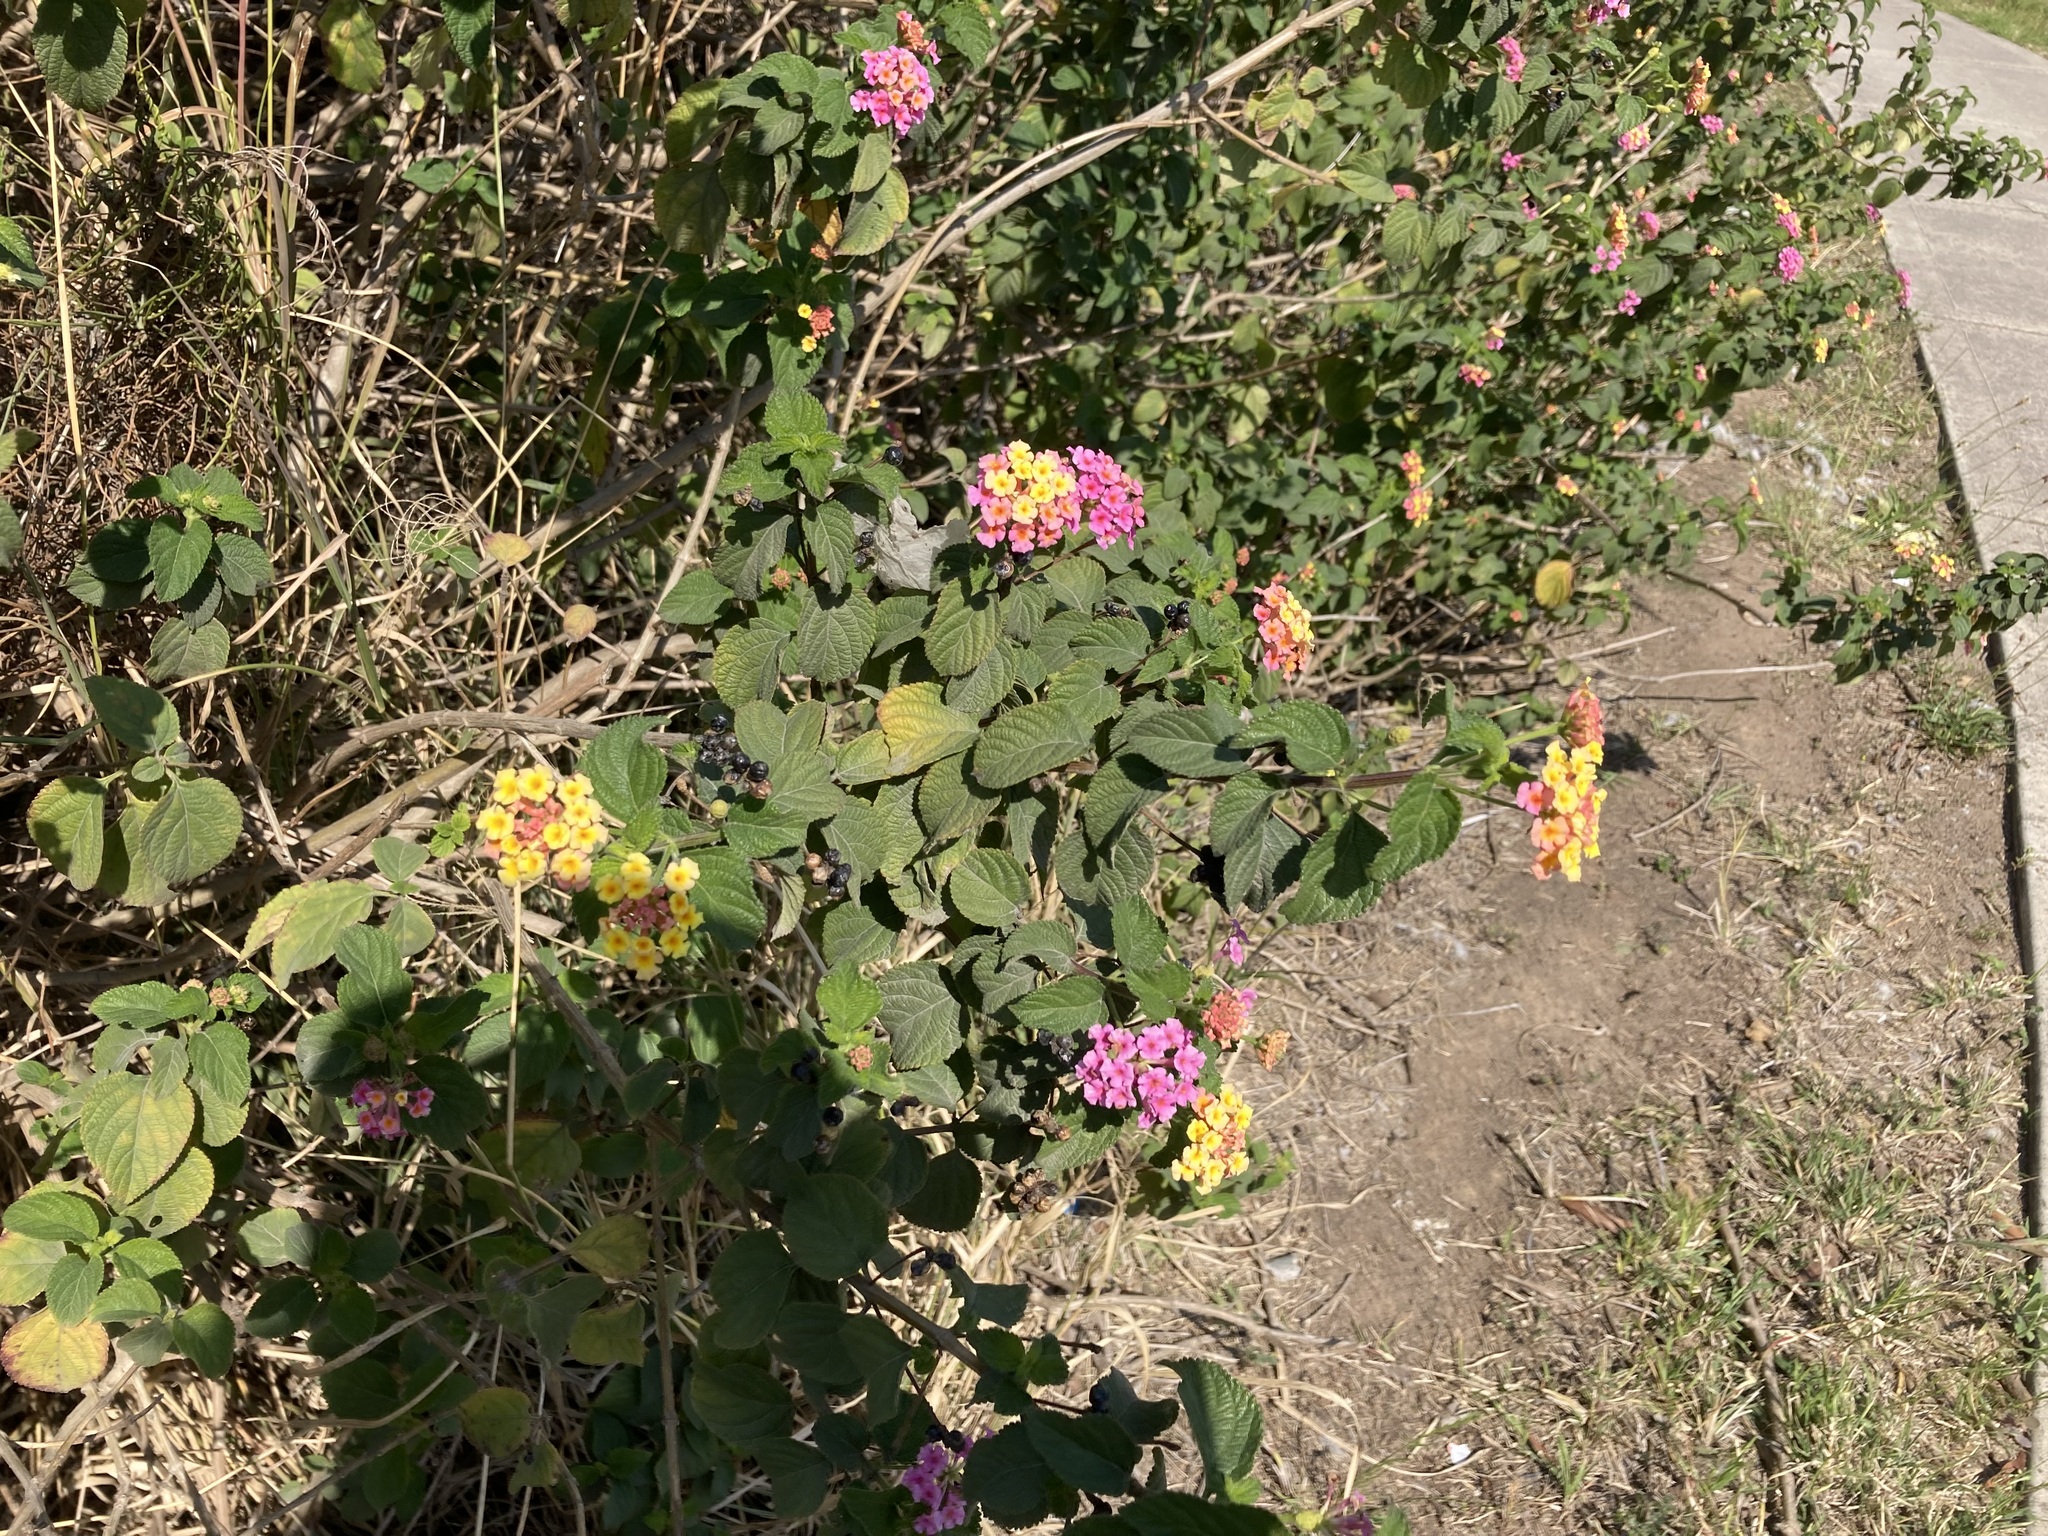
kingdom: Plantae
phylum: Tracheophyta
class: Magnoliopsida
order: Lamiales
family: Verbenaceae
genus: Lantana
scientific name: Lantana camara
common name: Lantana
